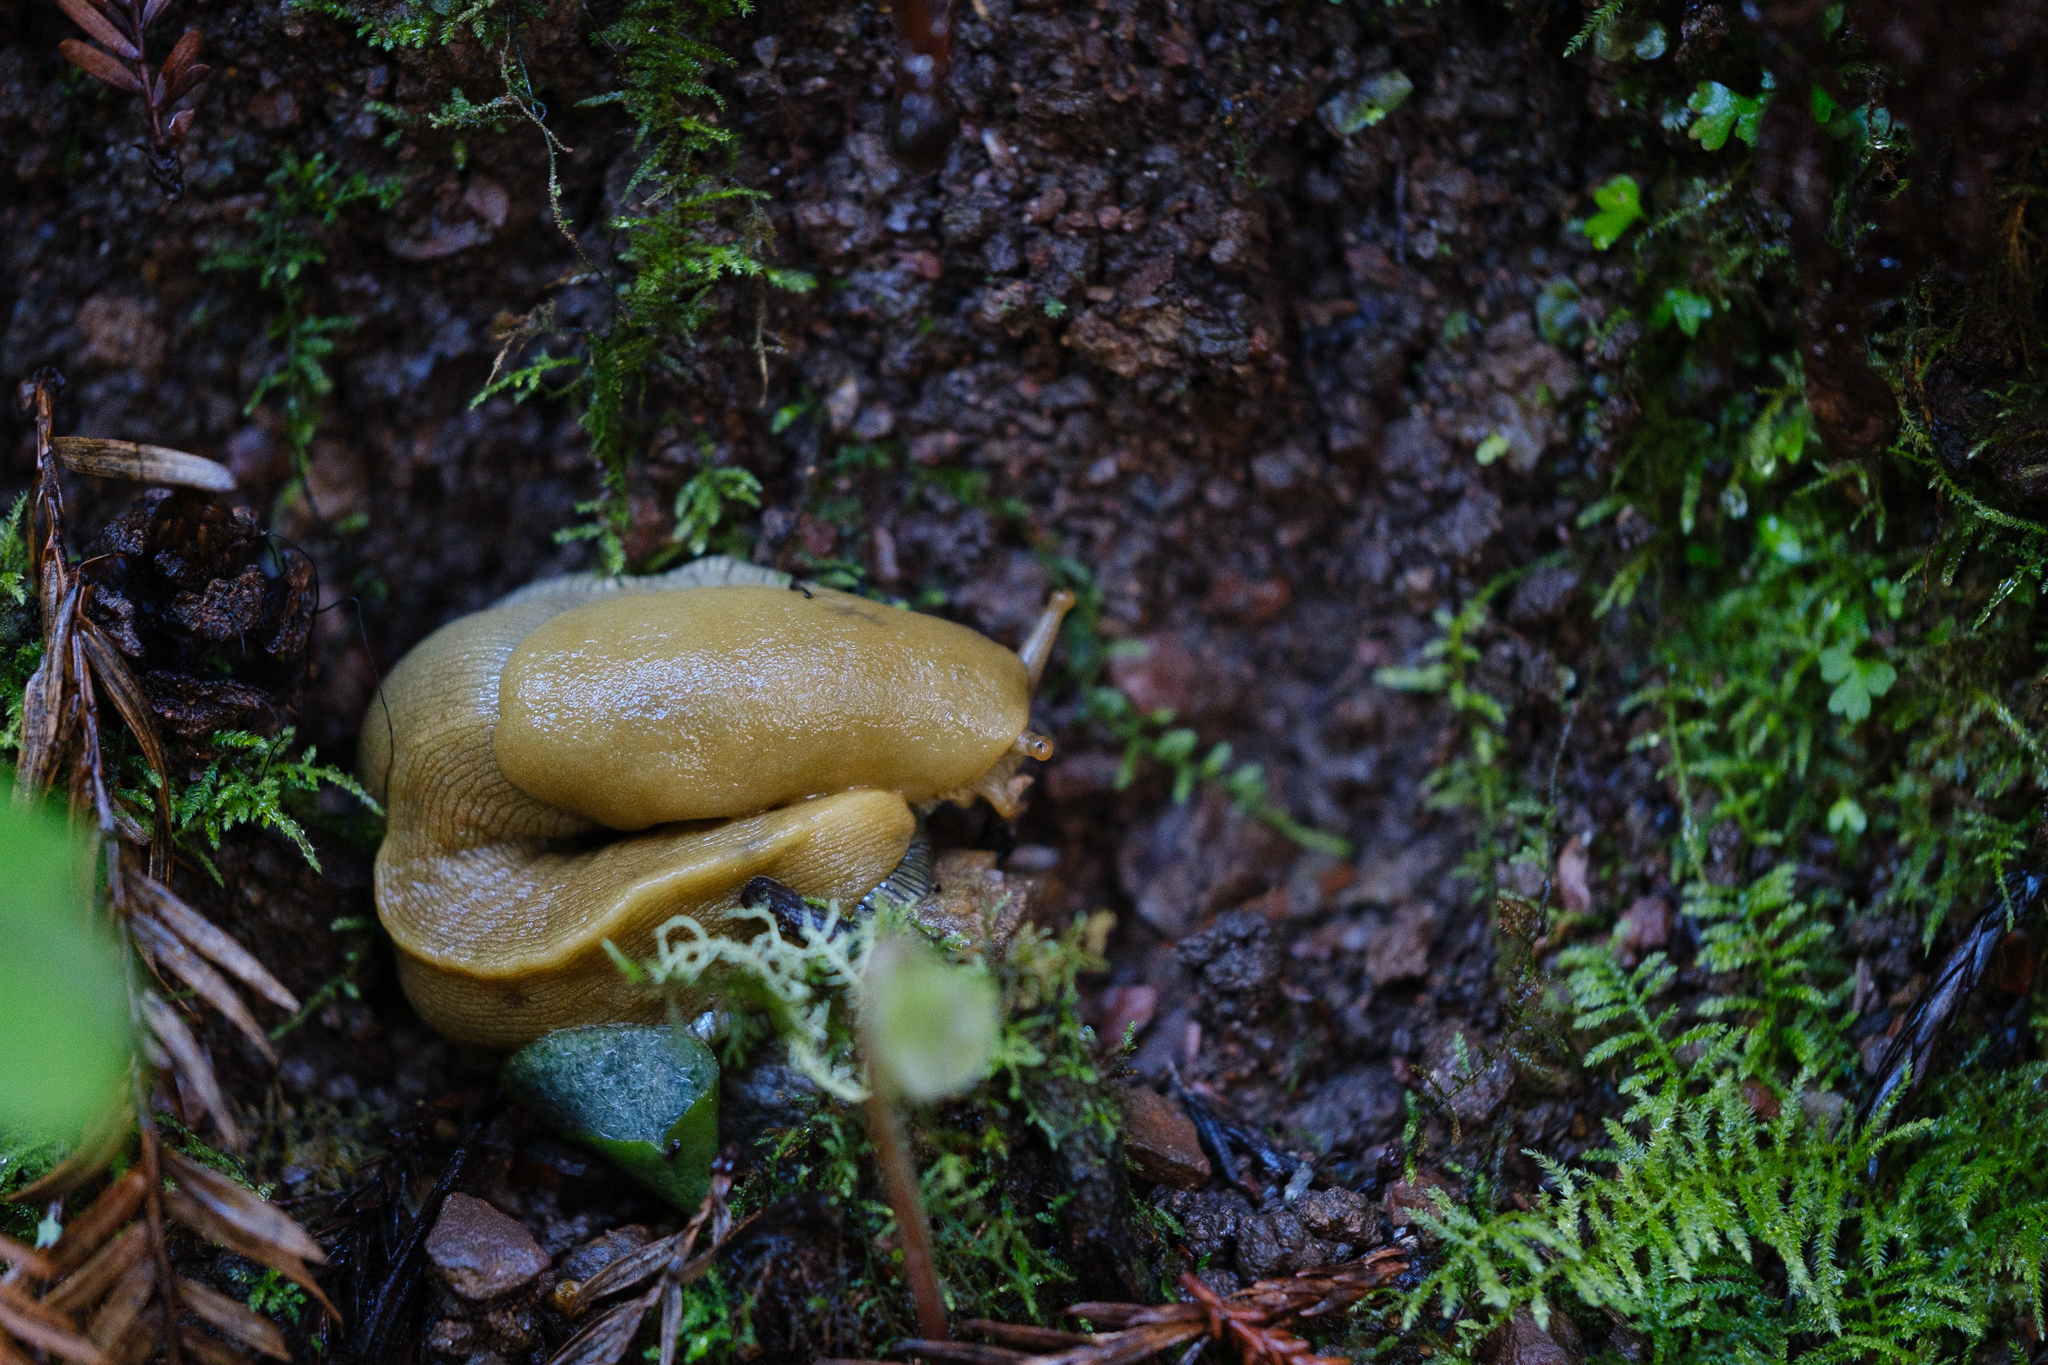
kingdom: Animalia
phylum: Mollusca
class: Gastropoda
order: Stylommatophora
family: Ariolimacidae
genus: Ariolimax
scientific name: Ariolimax buttoni
